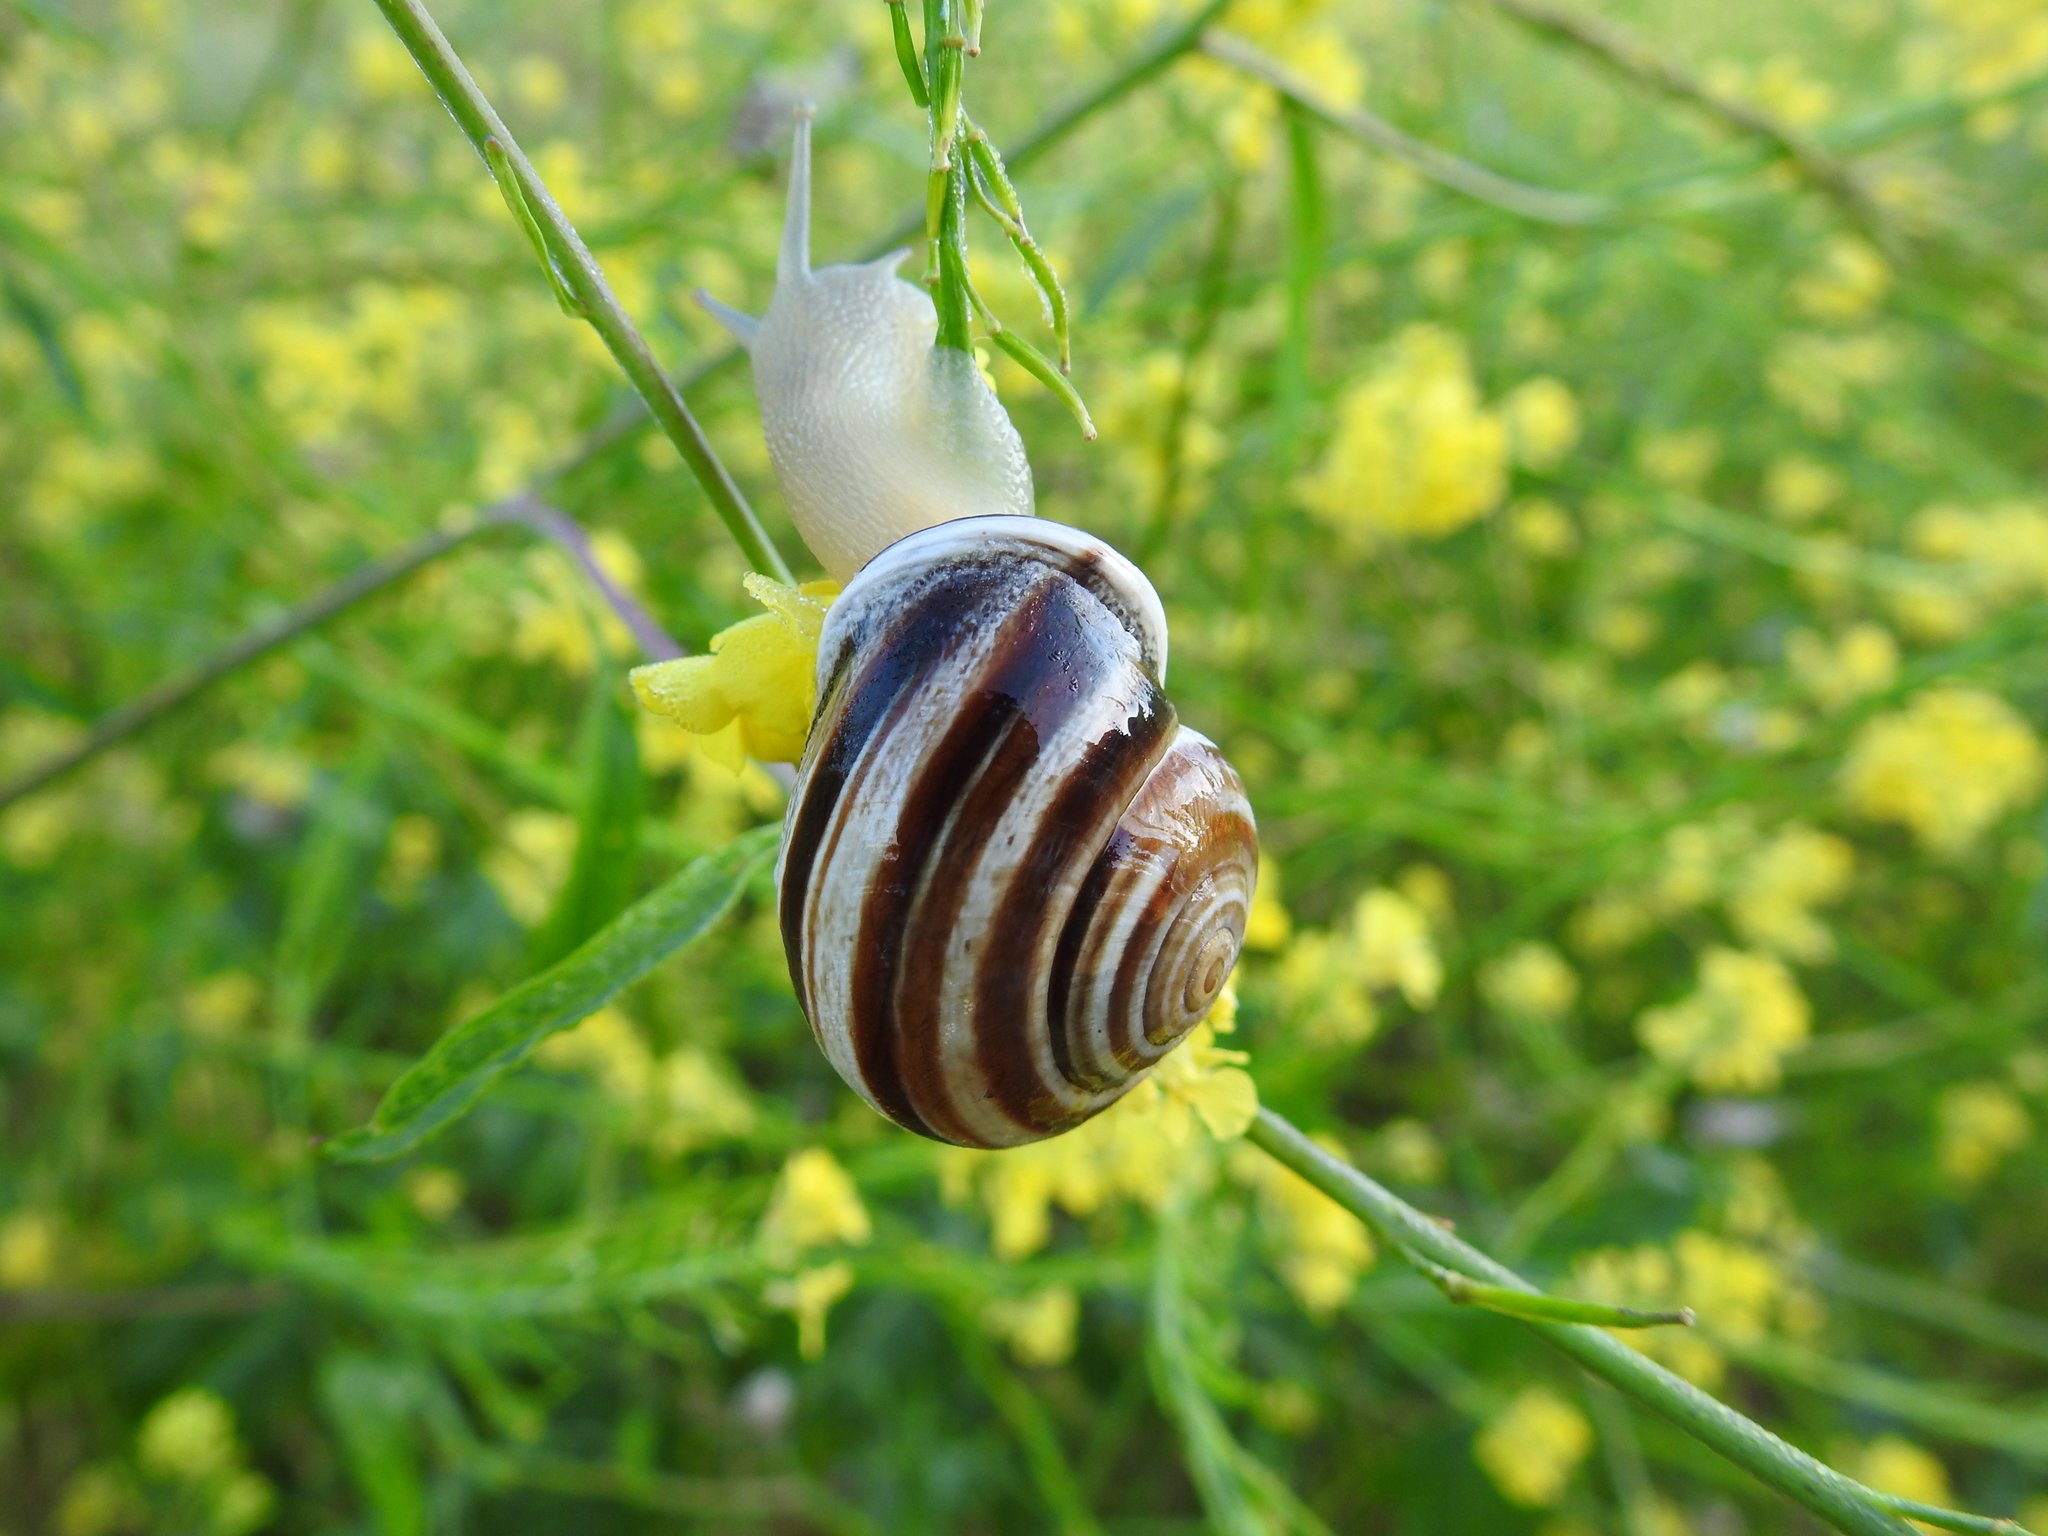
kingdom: Animalia
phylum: Mollusca
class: Gastropoda
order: Stylommatophora
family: Helicidae
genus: Otala
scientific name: Otala lactea
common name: Milk snail
